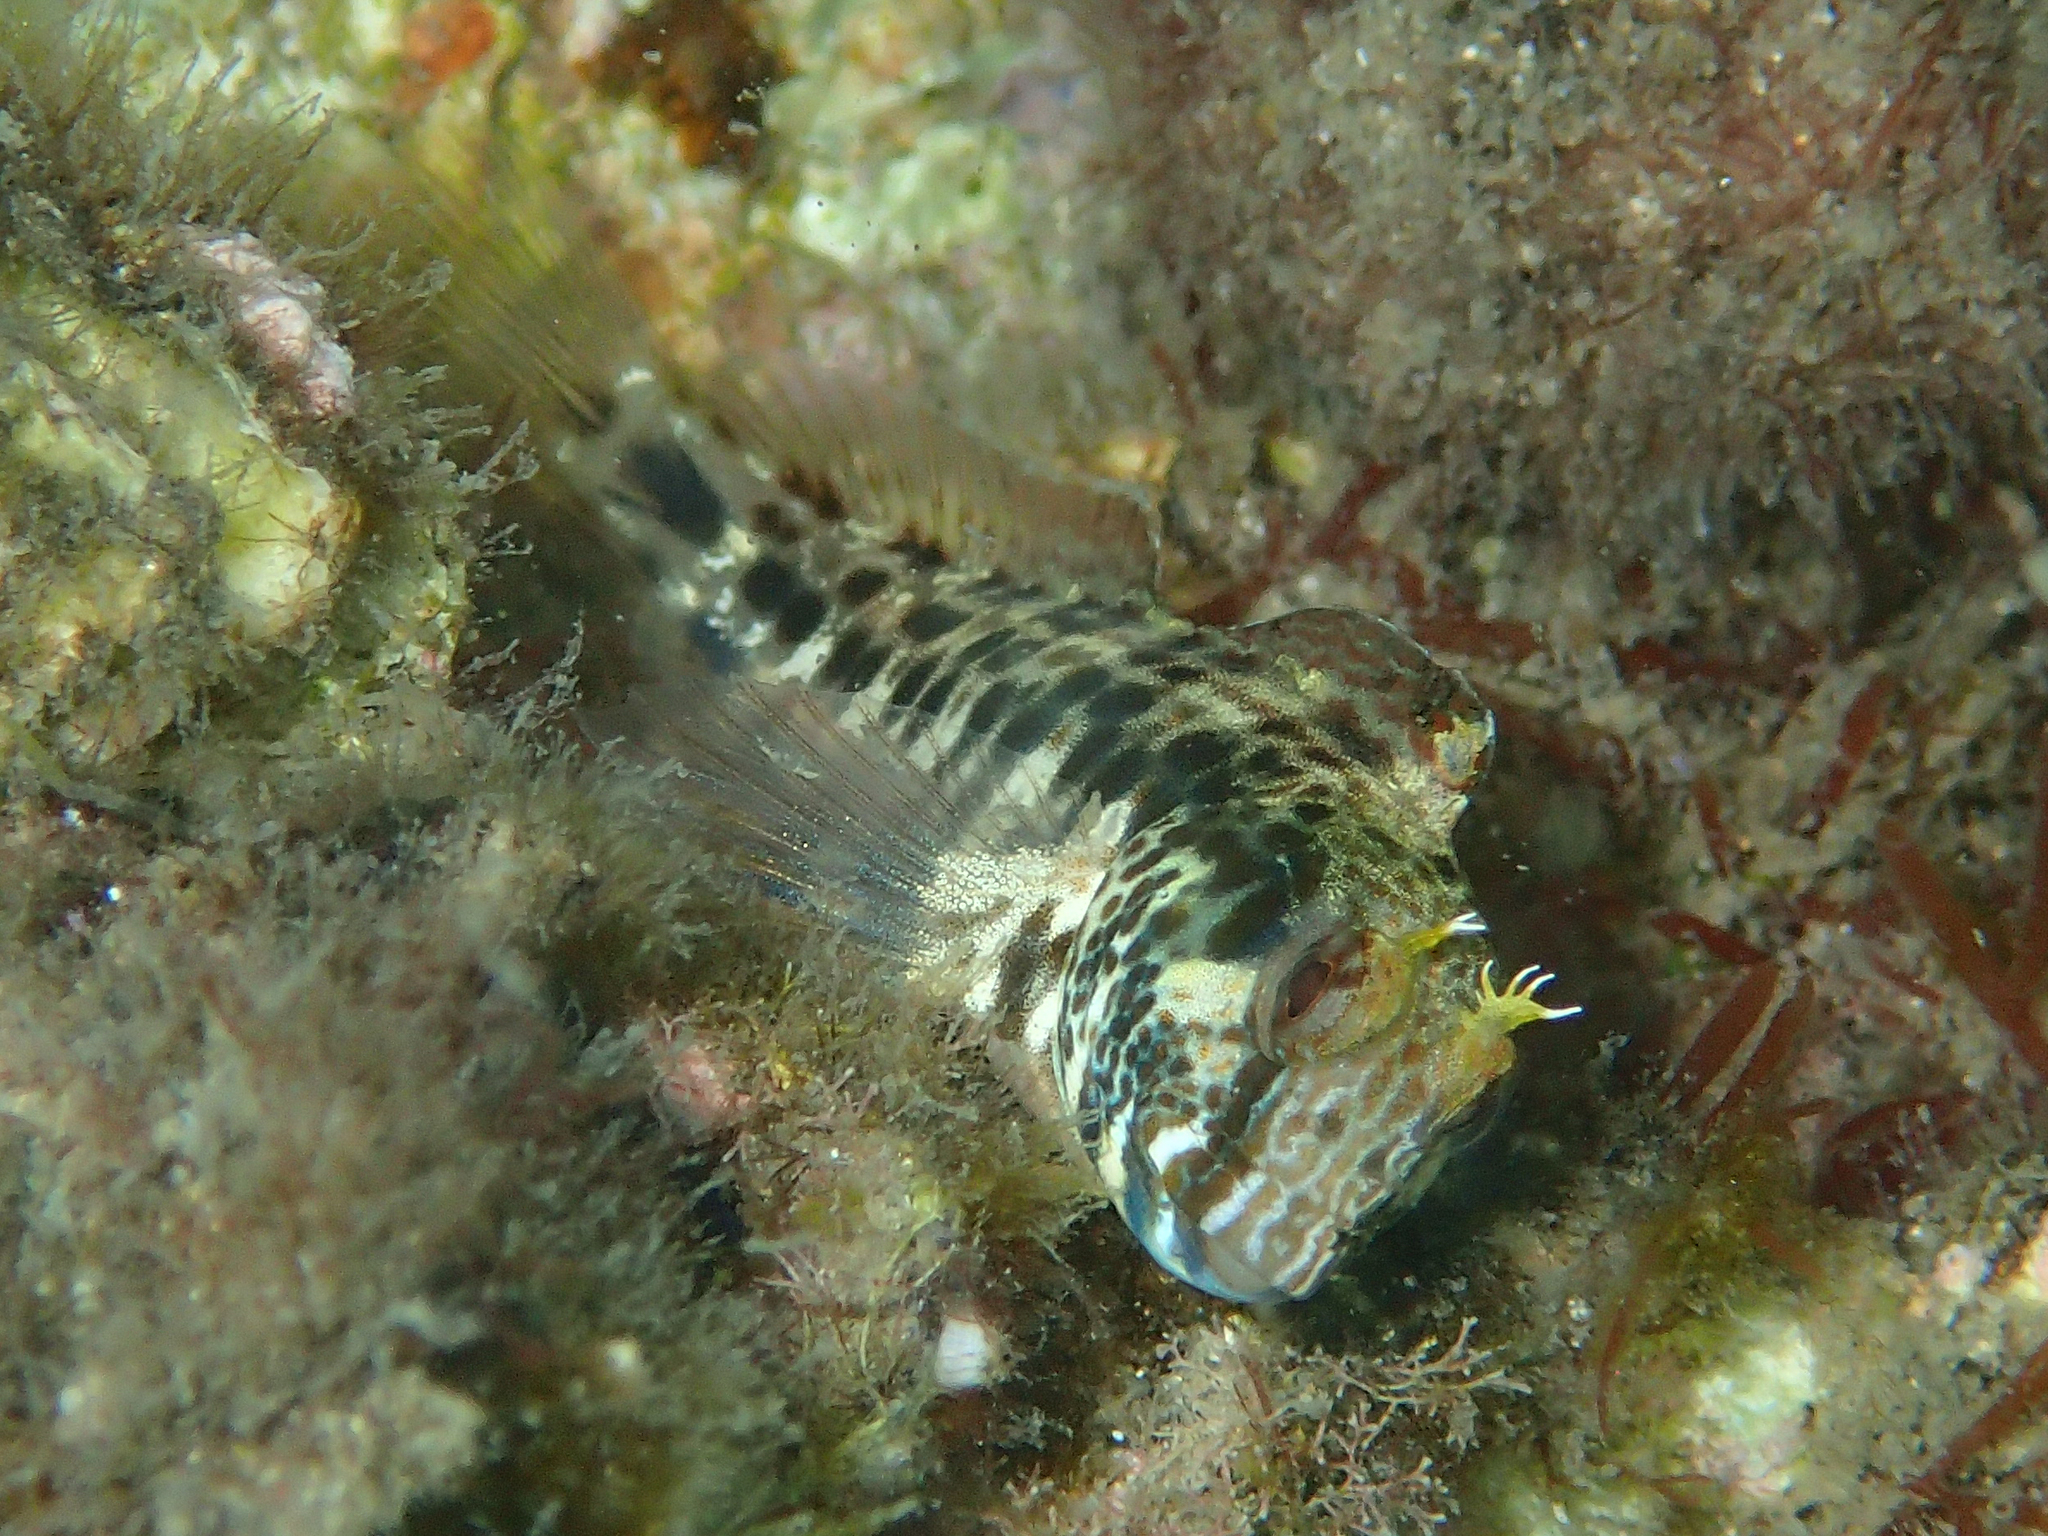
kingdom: Animalia
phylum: Chordata
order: Perciformes
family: Blenniidae
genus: Parablennius
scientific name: Parablennius intermedius
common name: Horned blenny
